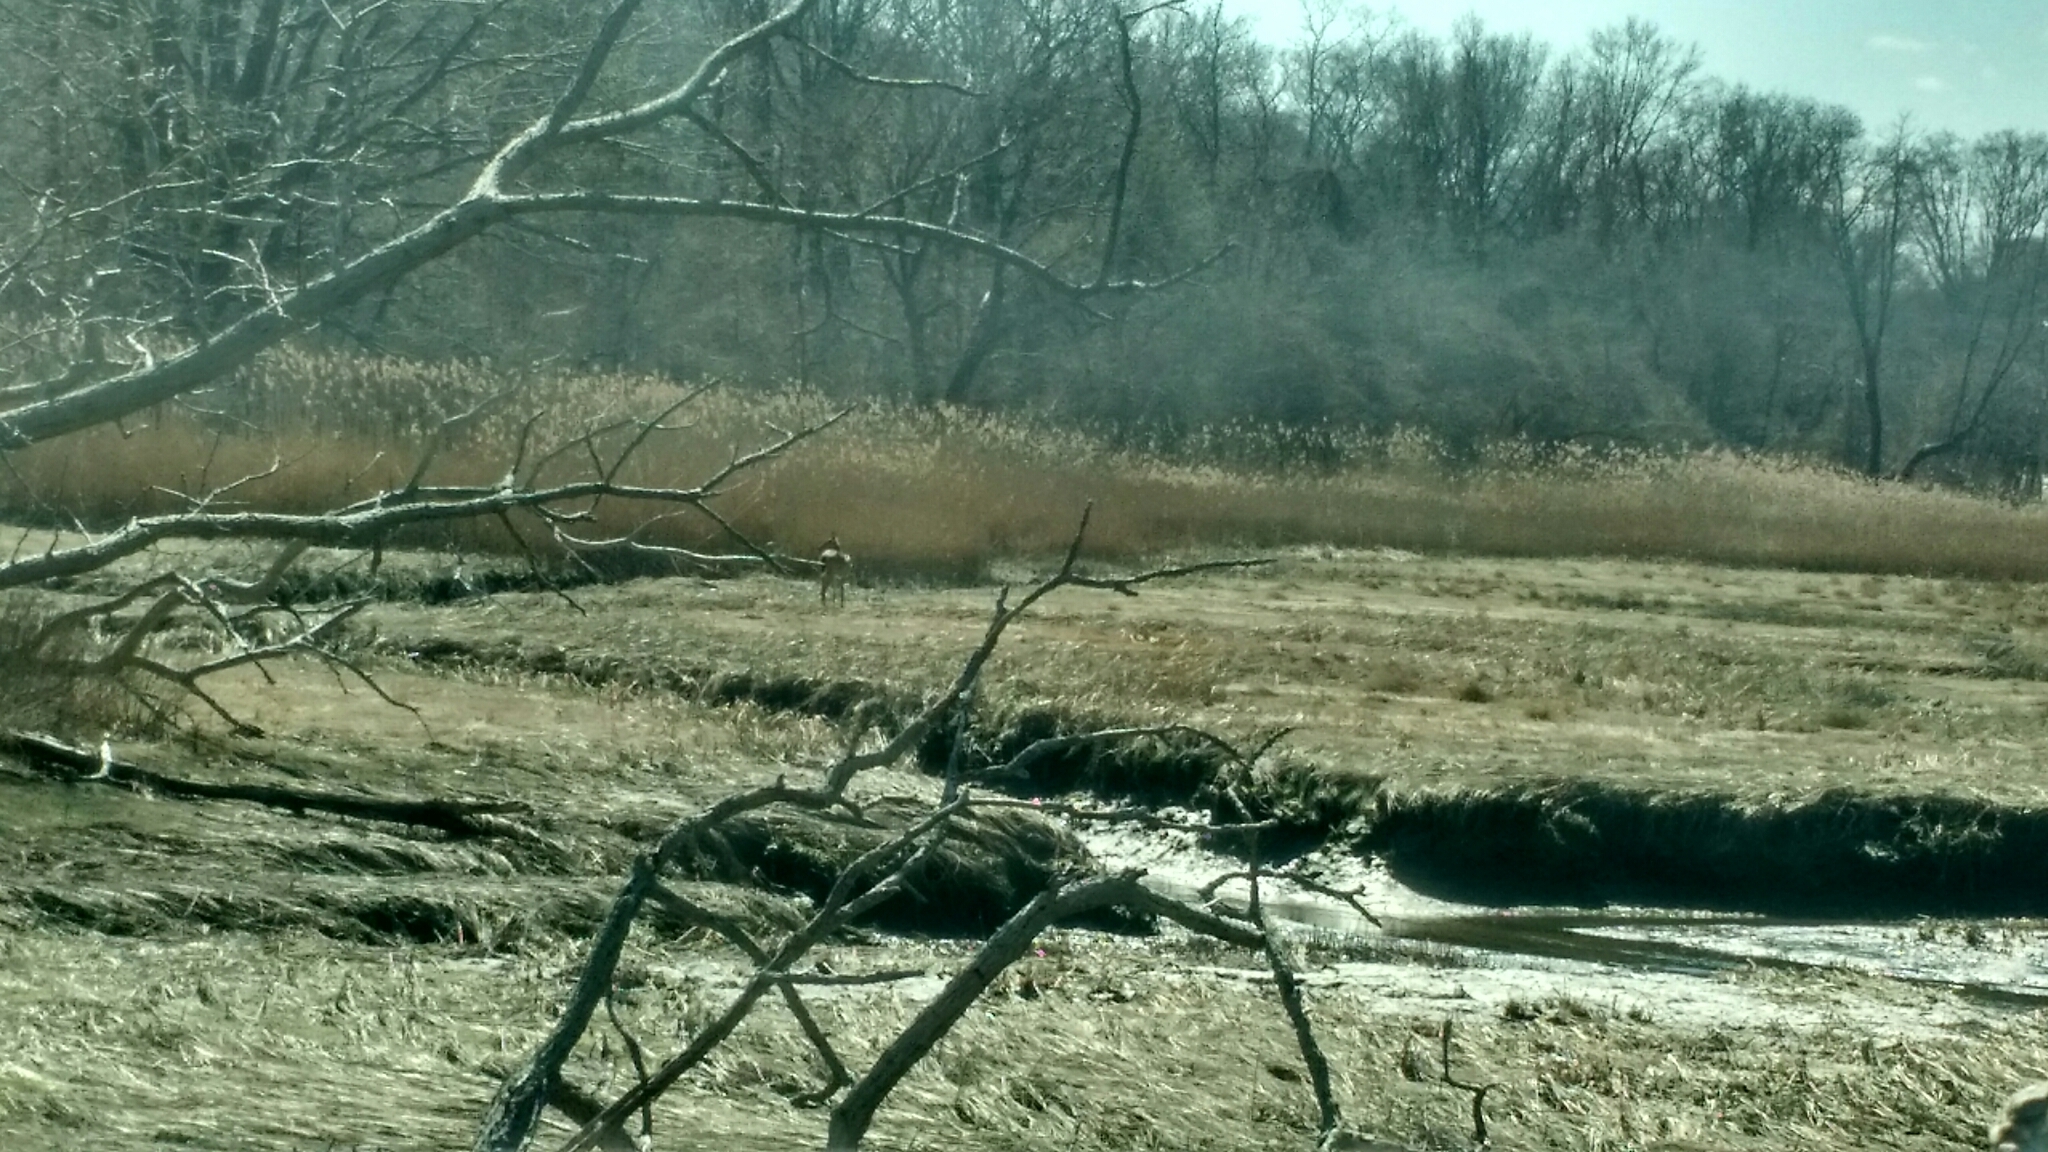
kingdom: Animalia
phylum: Chordata
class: Mammalia
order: Artiodactyla
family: Cervidae
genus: Odocoileus
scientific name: Odocoileus virginianus
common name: White-tailed deer
